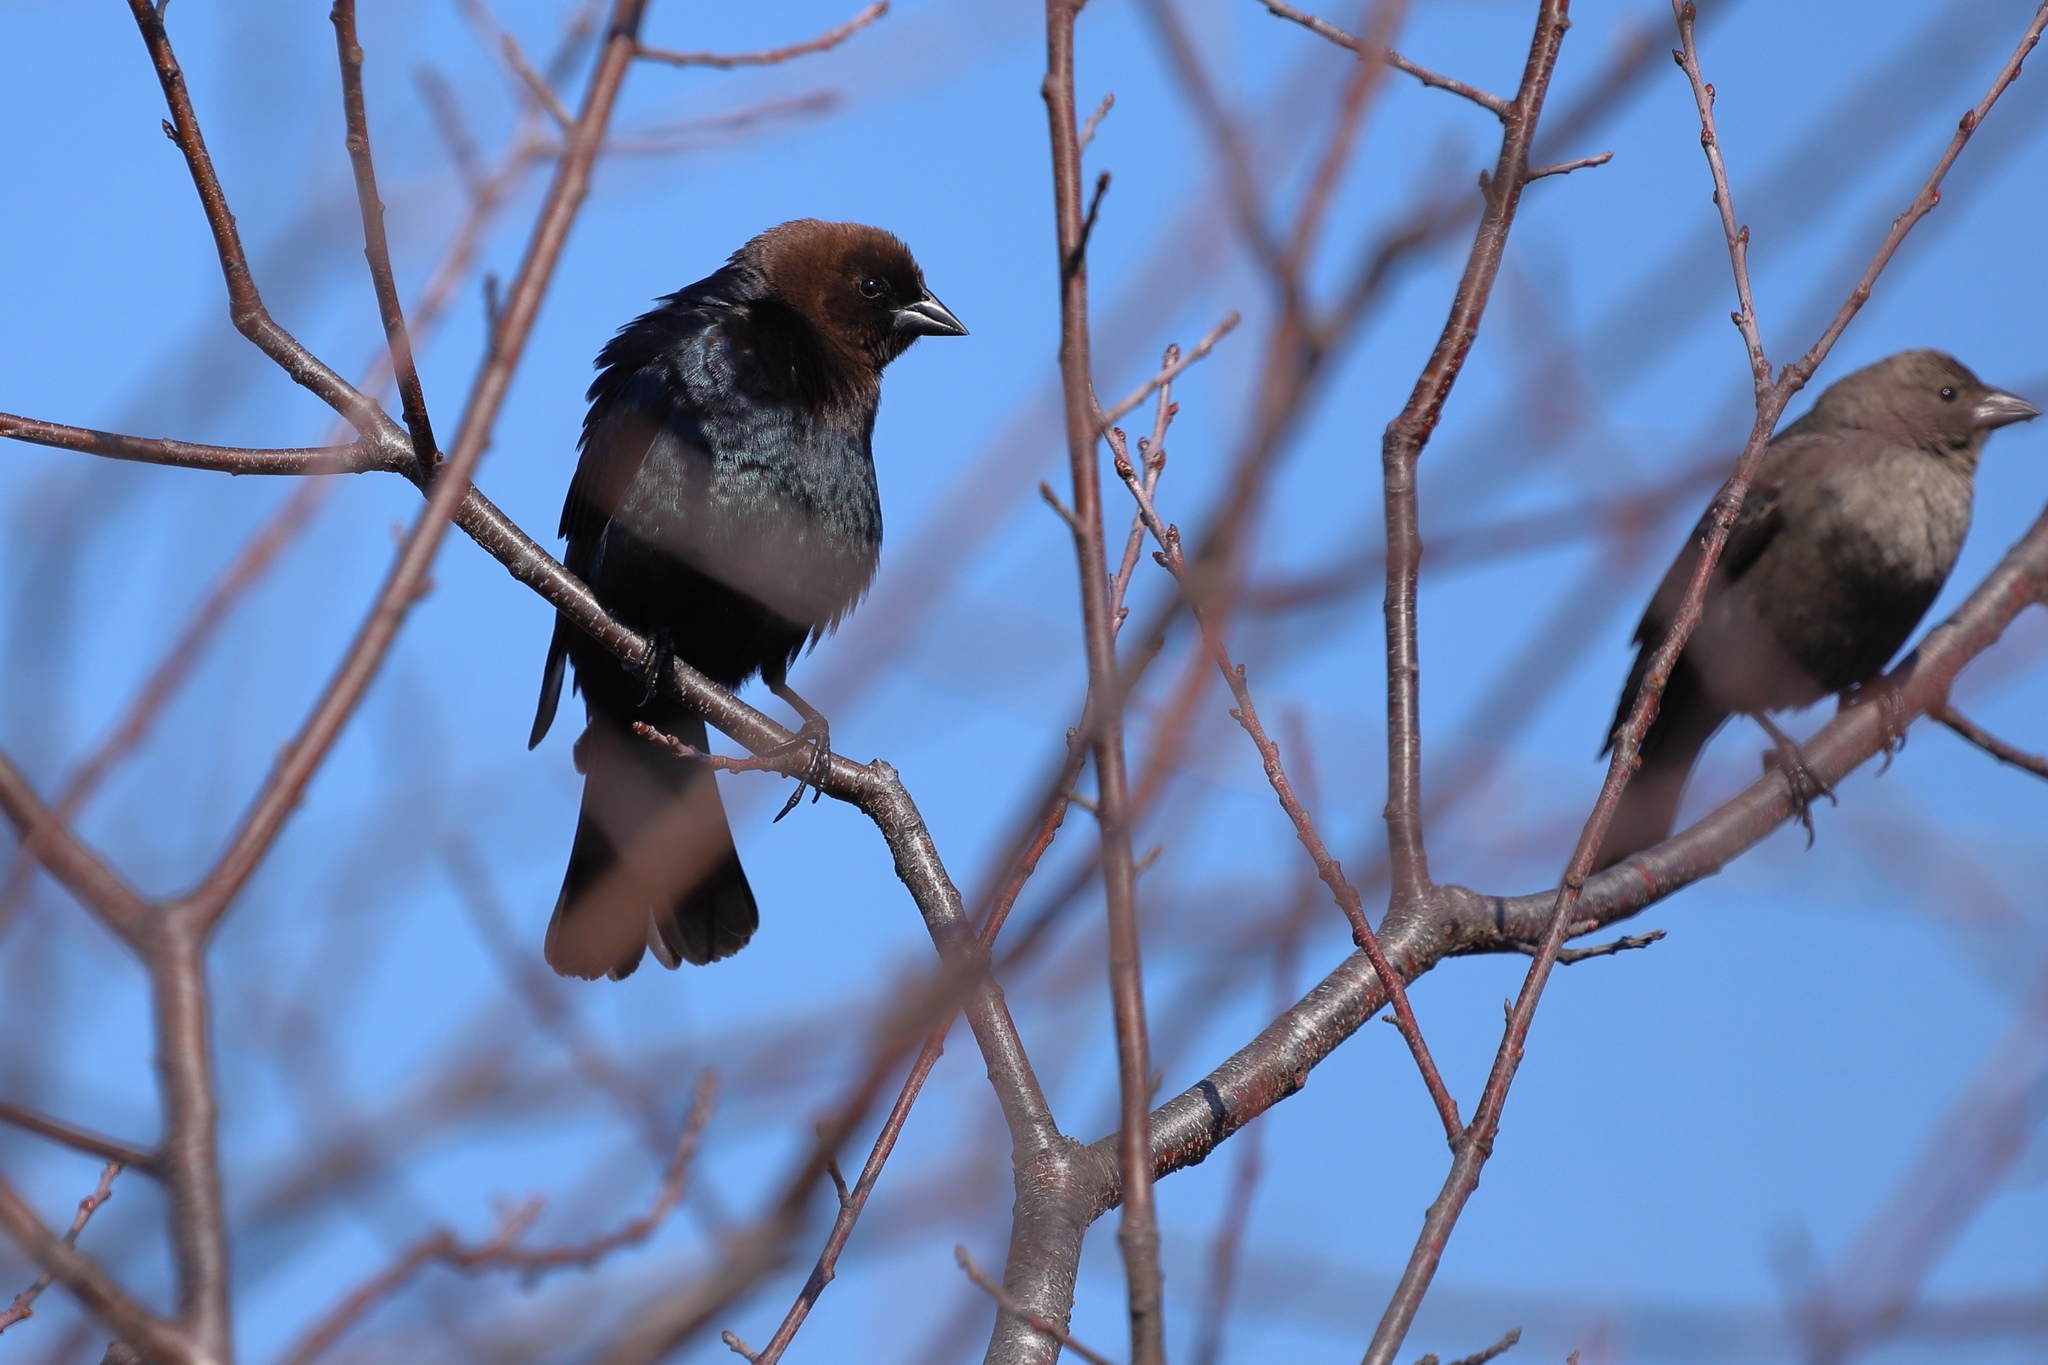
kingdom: Animalia
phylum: Chordata
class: Aves
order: Passeriformes
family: Icteridae
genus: Molothrus
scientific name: Molothrus ater
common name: Brown-headed cowbird
